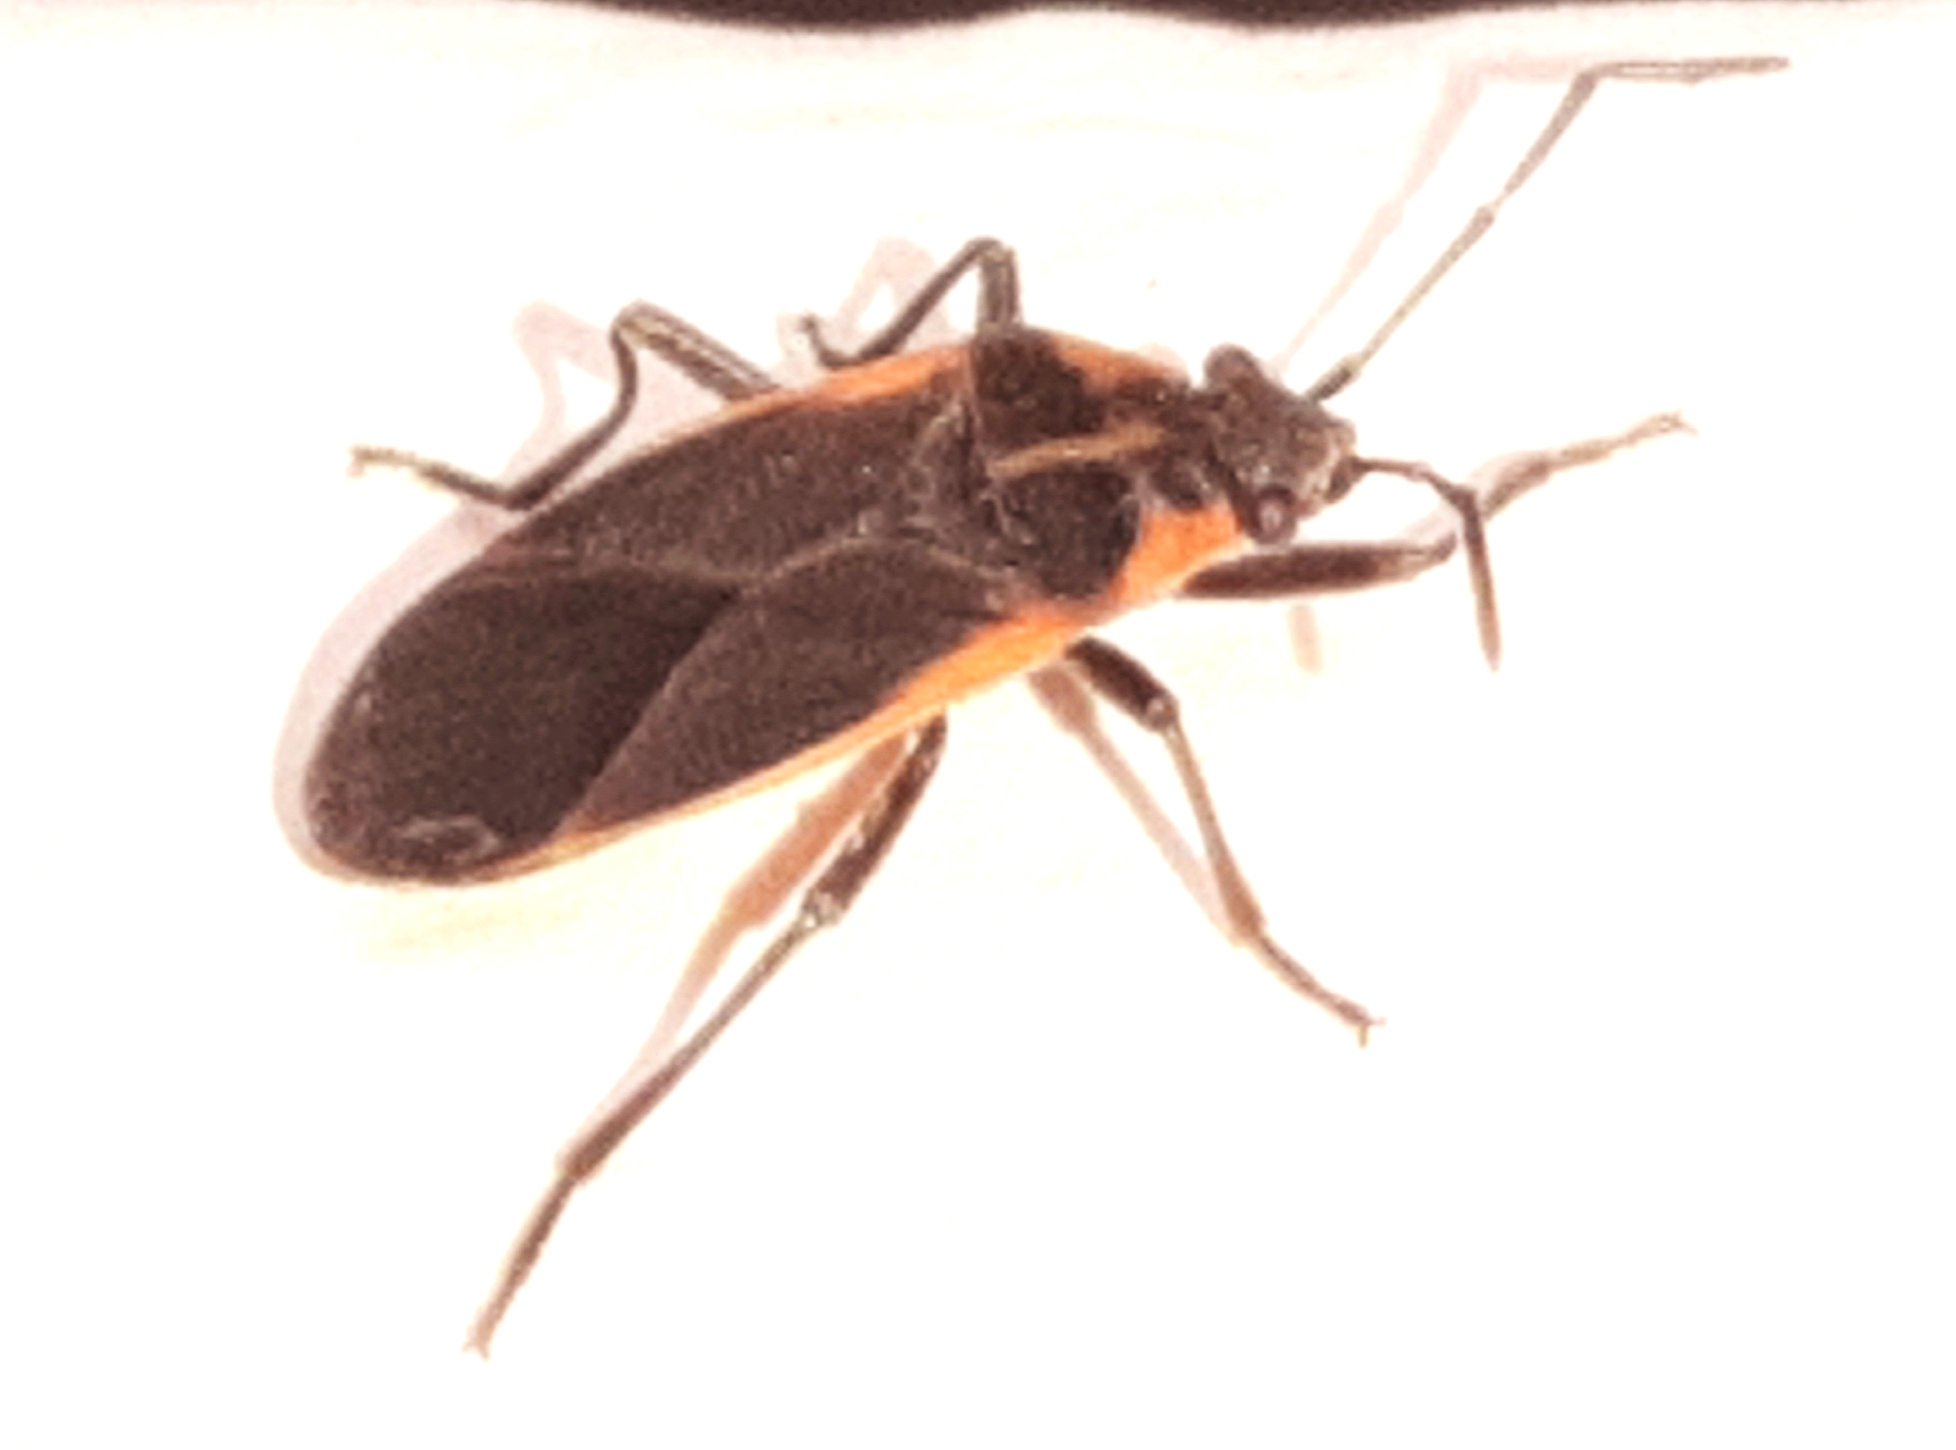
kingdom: Animalia
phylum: Arthropoda
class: Insecta
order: Hemiptera
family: Lygaeidae
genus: Melacoryphus
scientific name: Melacoryphus lateralis
